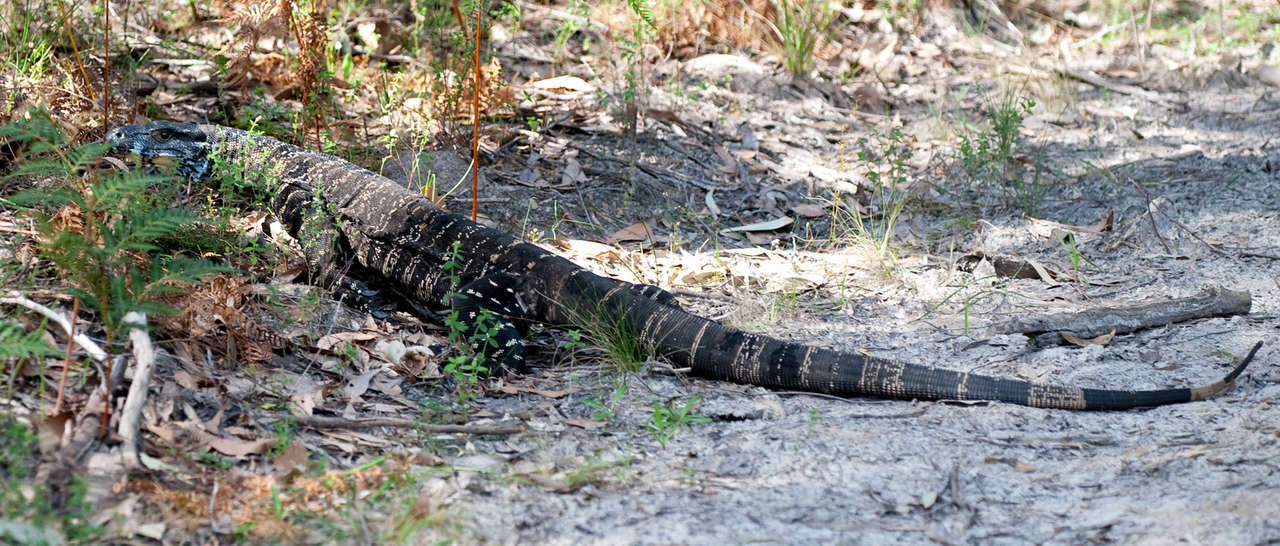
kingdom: Animalia
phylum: Chordata
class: Squamata
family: Varanidae
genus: Varanus
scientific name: Varanus varius
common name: Lace monitor
